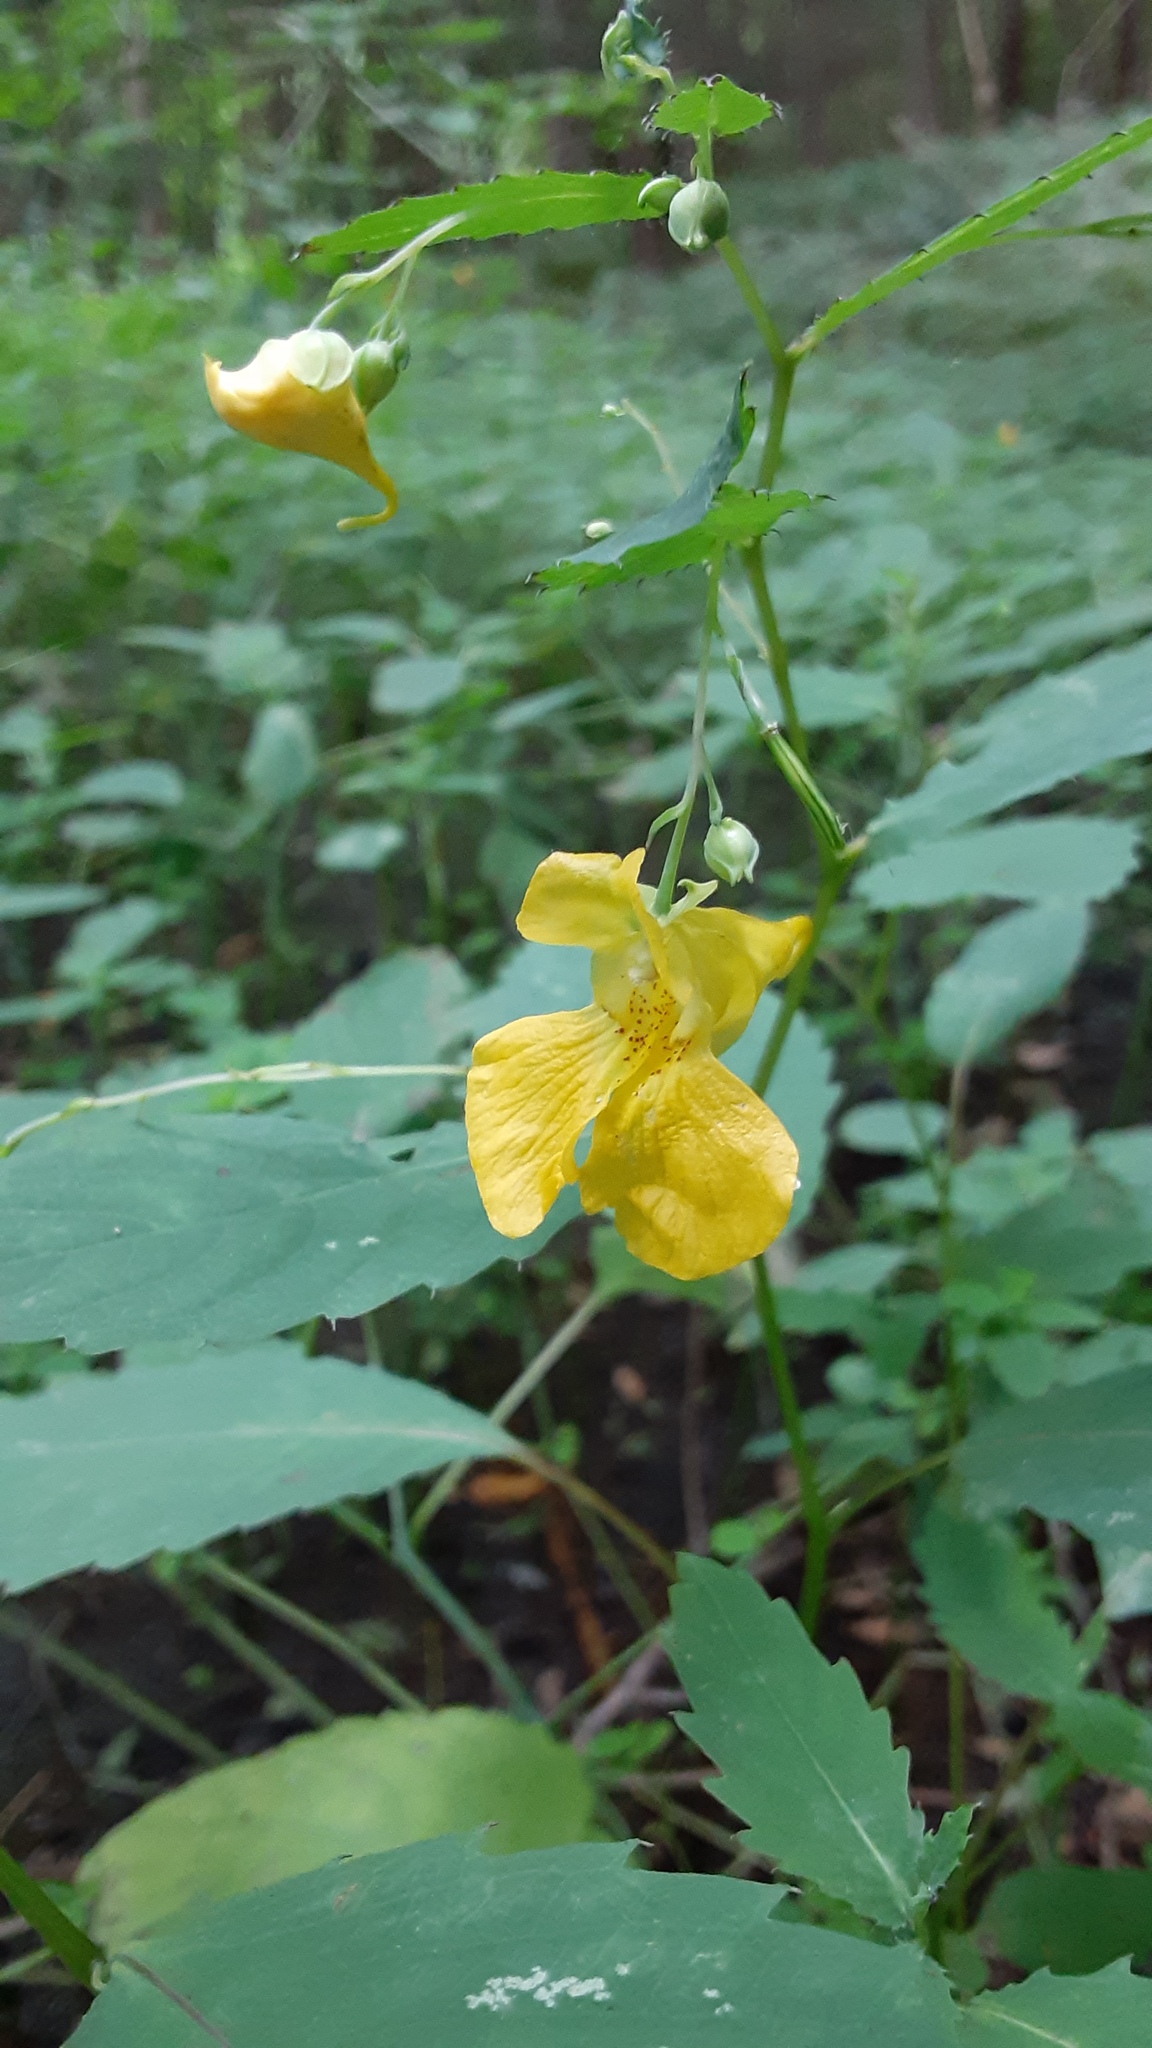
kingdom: Plantae
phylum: Tracheophyta
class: Magnoliopsida
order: Ericales
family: Balsaminaceae
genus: Impatiens
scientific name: Impatiens pallida
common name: Pale snapweed
